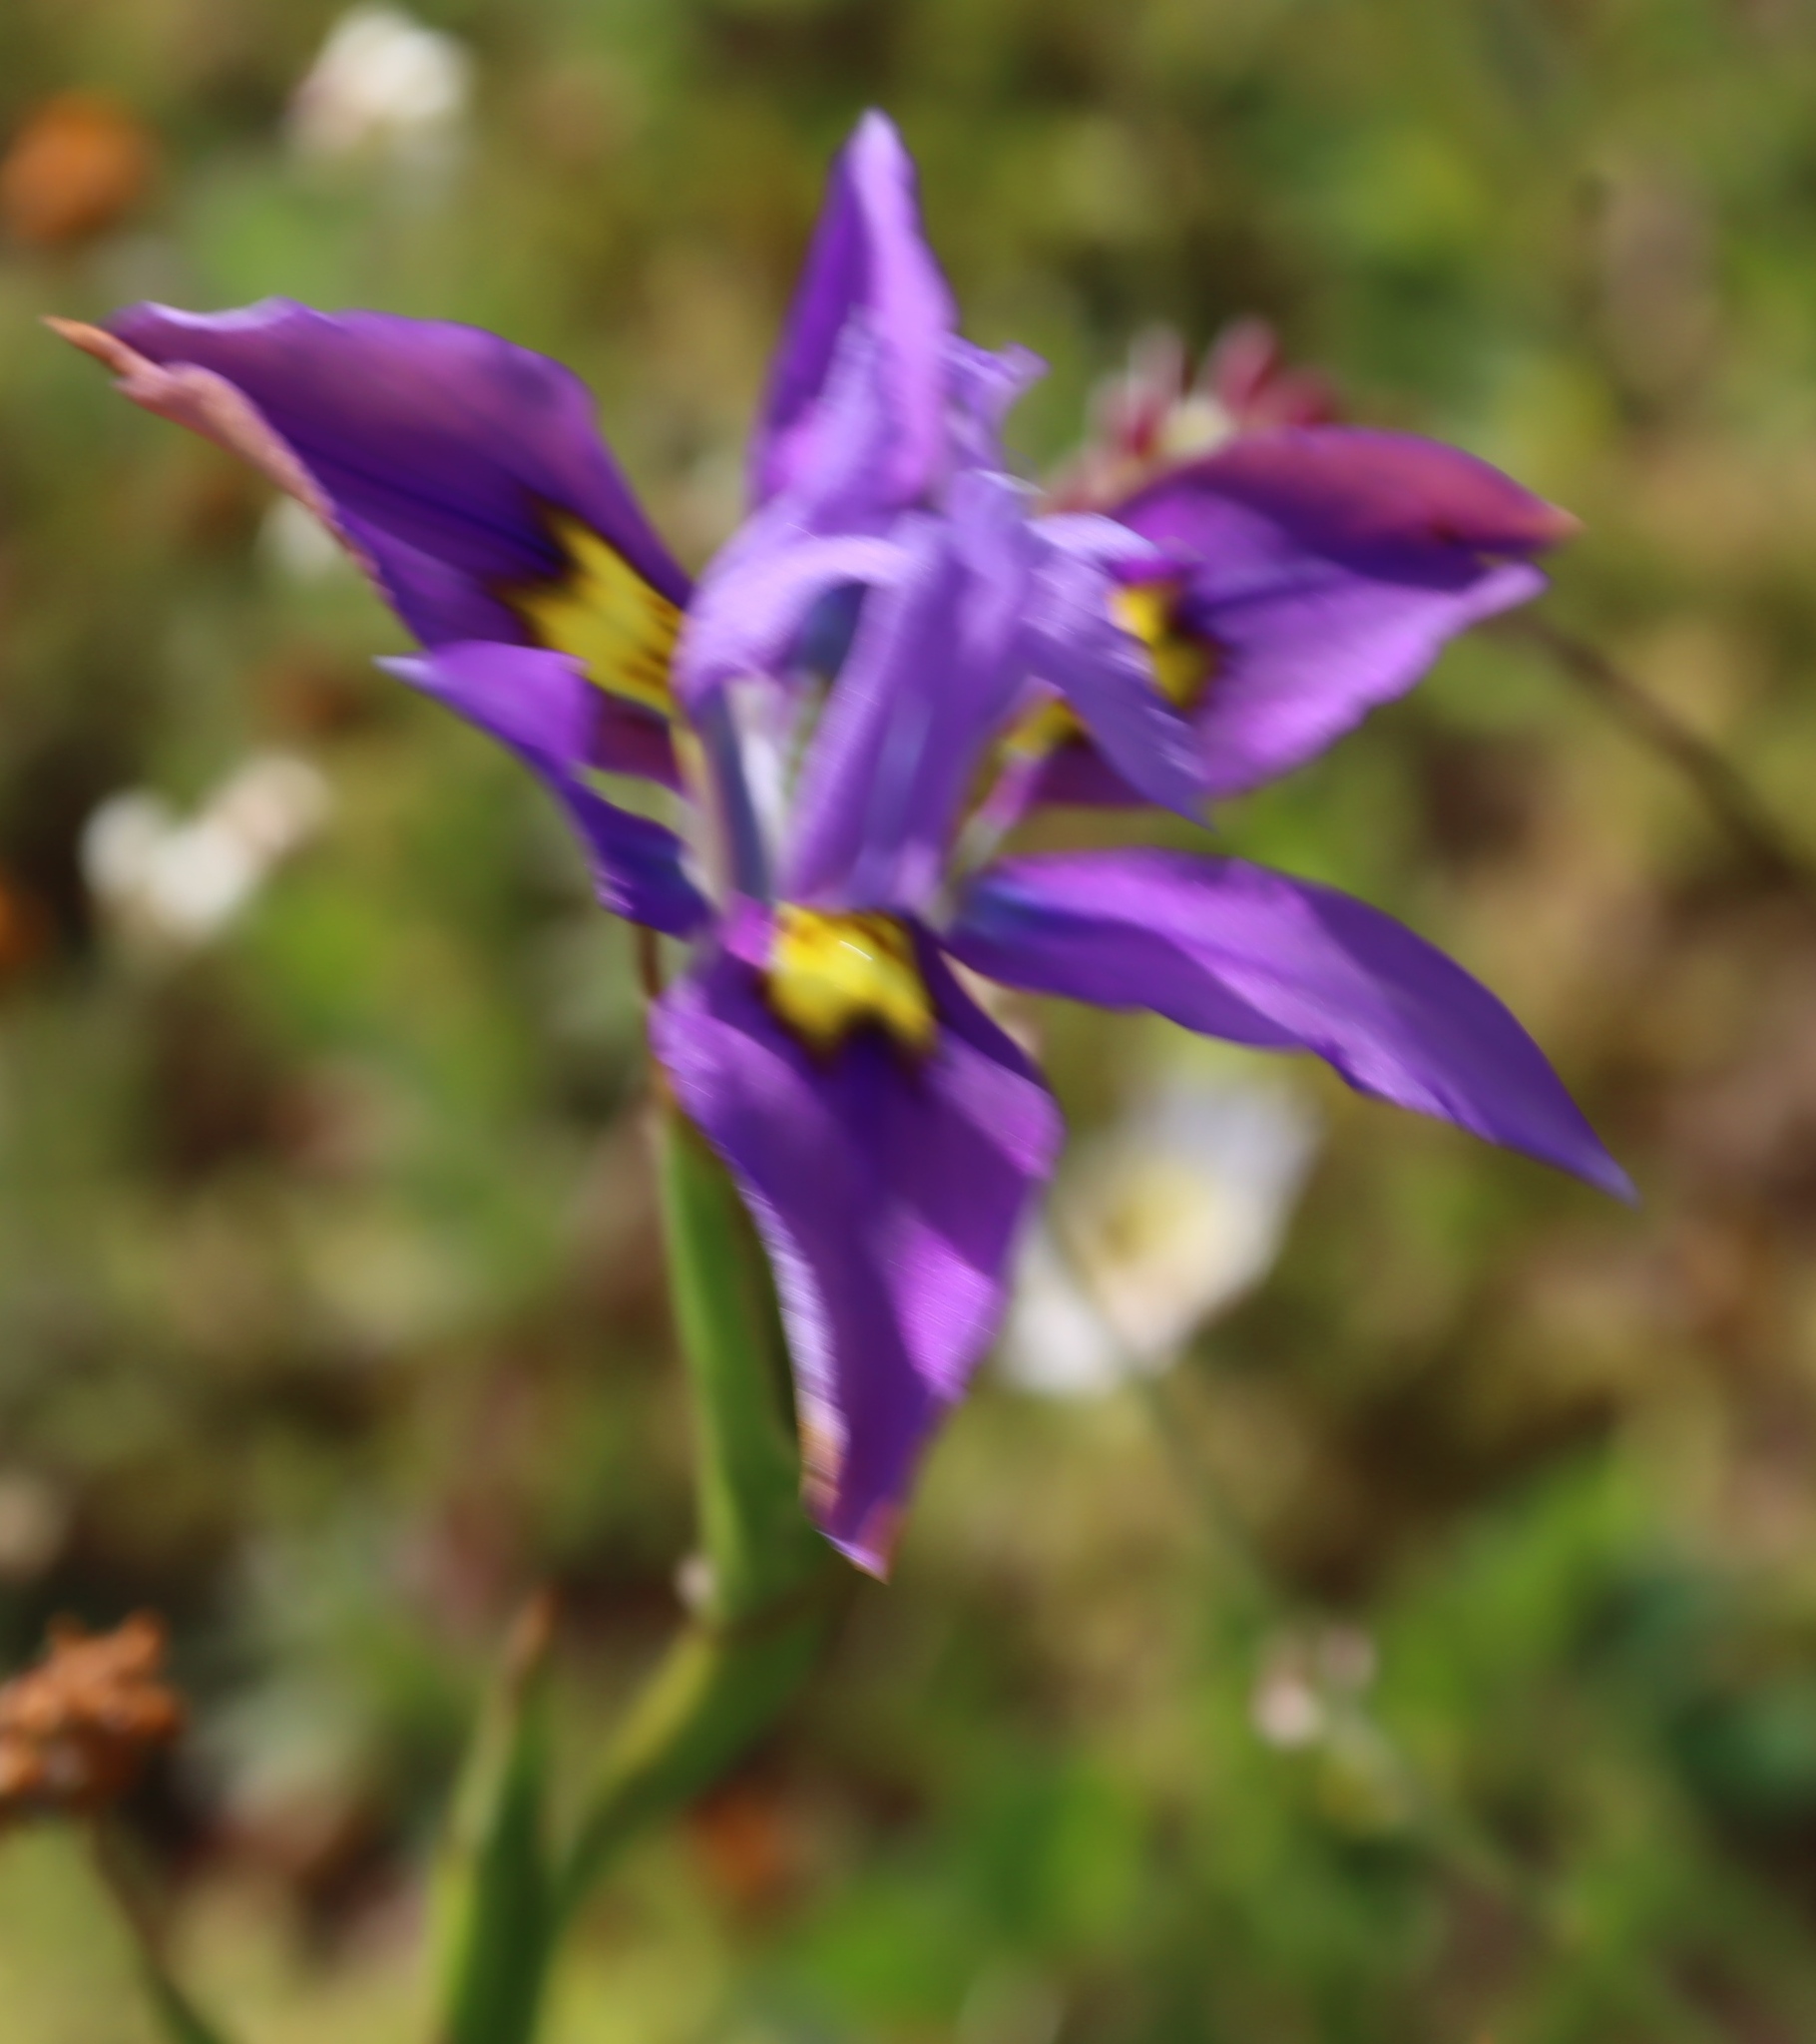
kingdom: Plantae
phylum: Tracheophyta
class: Liliopsida
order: Asparagales
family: Iridaceae
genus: Moraea
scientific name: Moraea fugax
